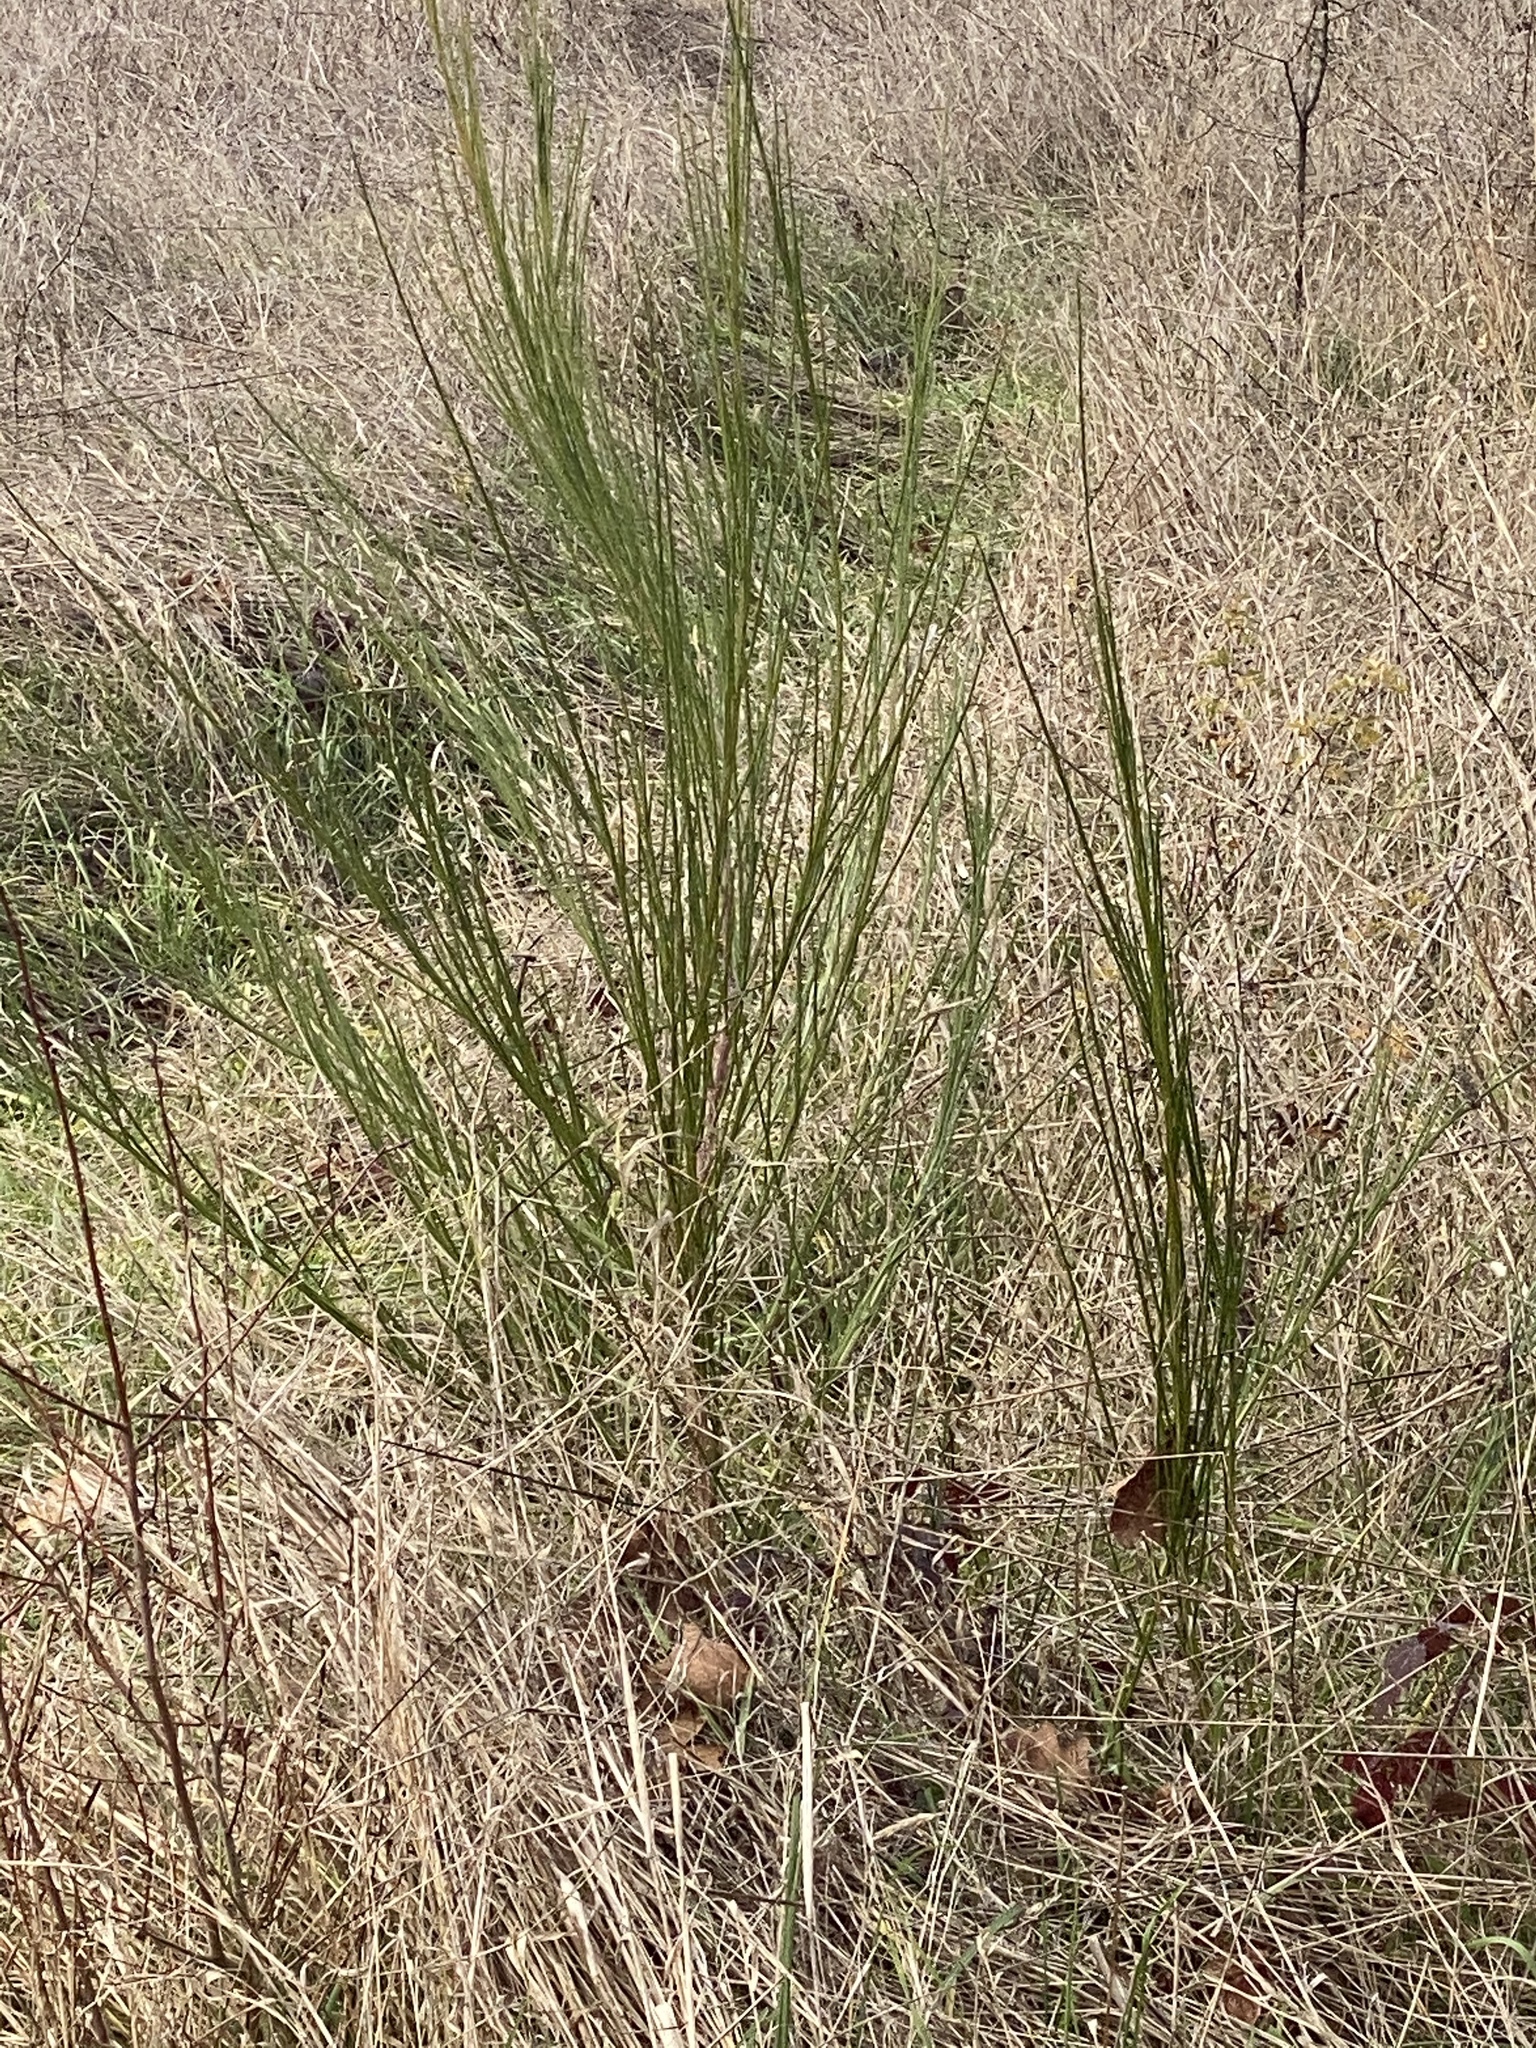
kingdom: Plantae
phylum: Tracheophyta
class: Magnoliopsida
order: Fabales
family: Fabaceae
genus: Cytisus
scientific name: Cytisus scoparius
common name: Scotch broom
